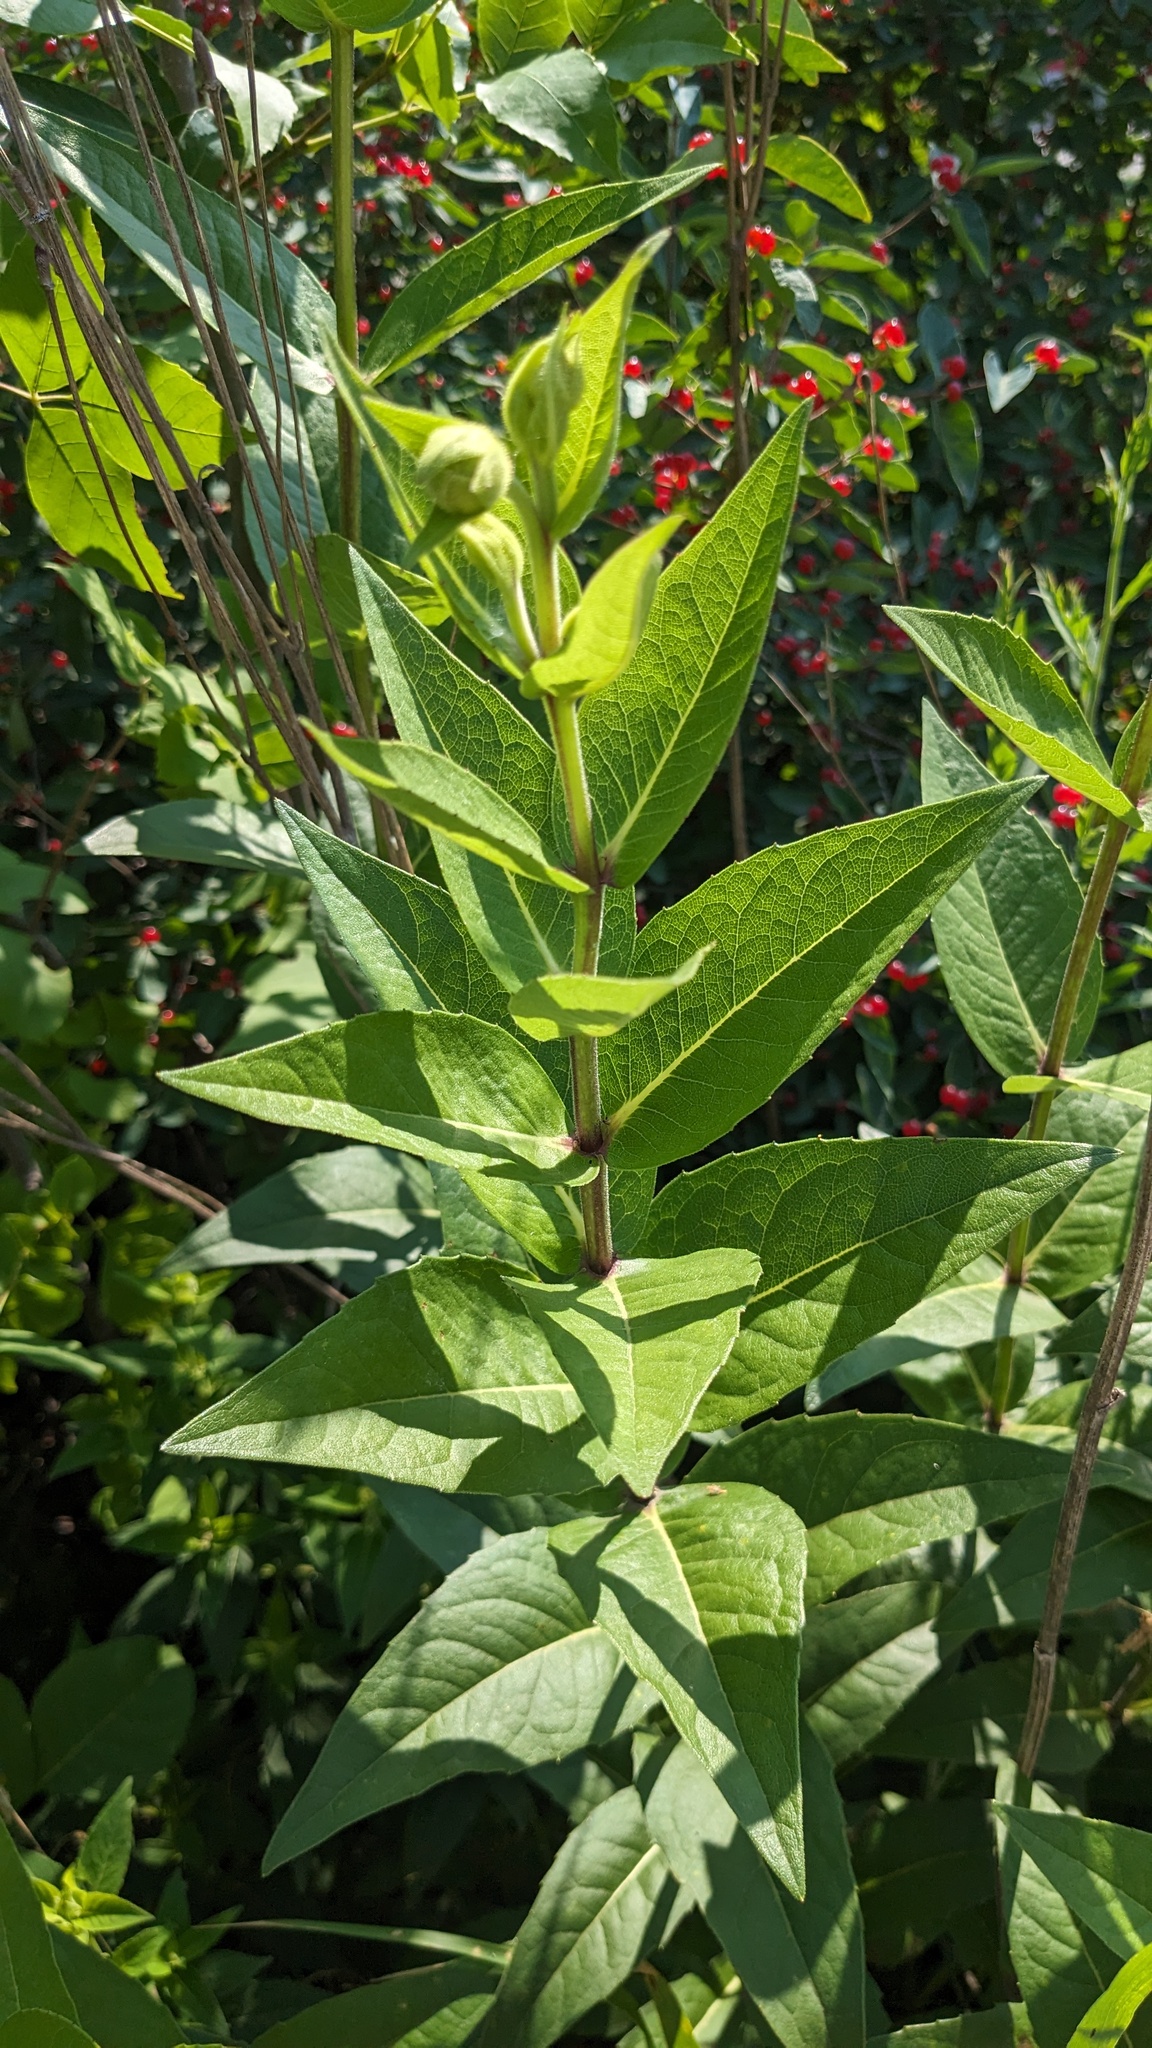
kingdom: Plantae
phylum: Tracheophyta
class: Magnoliopsida
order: Asterales
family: Asteraceae
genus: Silphium
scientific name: Silphium integrifolium
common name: Whole-leaf rosinweed
